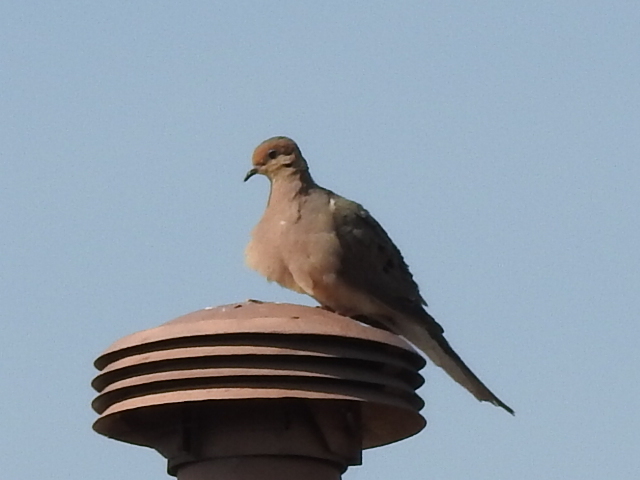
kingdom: Animalia
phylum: Chordata
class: Aves
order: Columbiformes
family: Columbidae
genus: Zenaida
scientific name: Zenaida macroura
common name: Mourning dove
